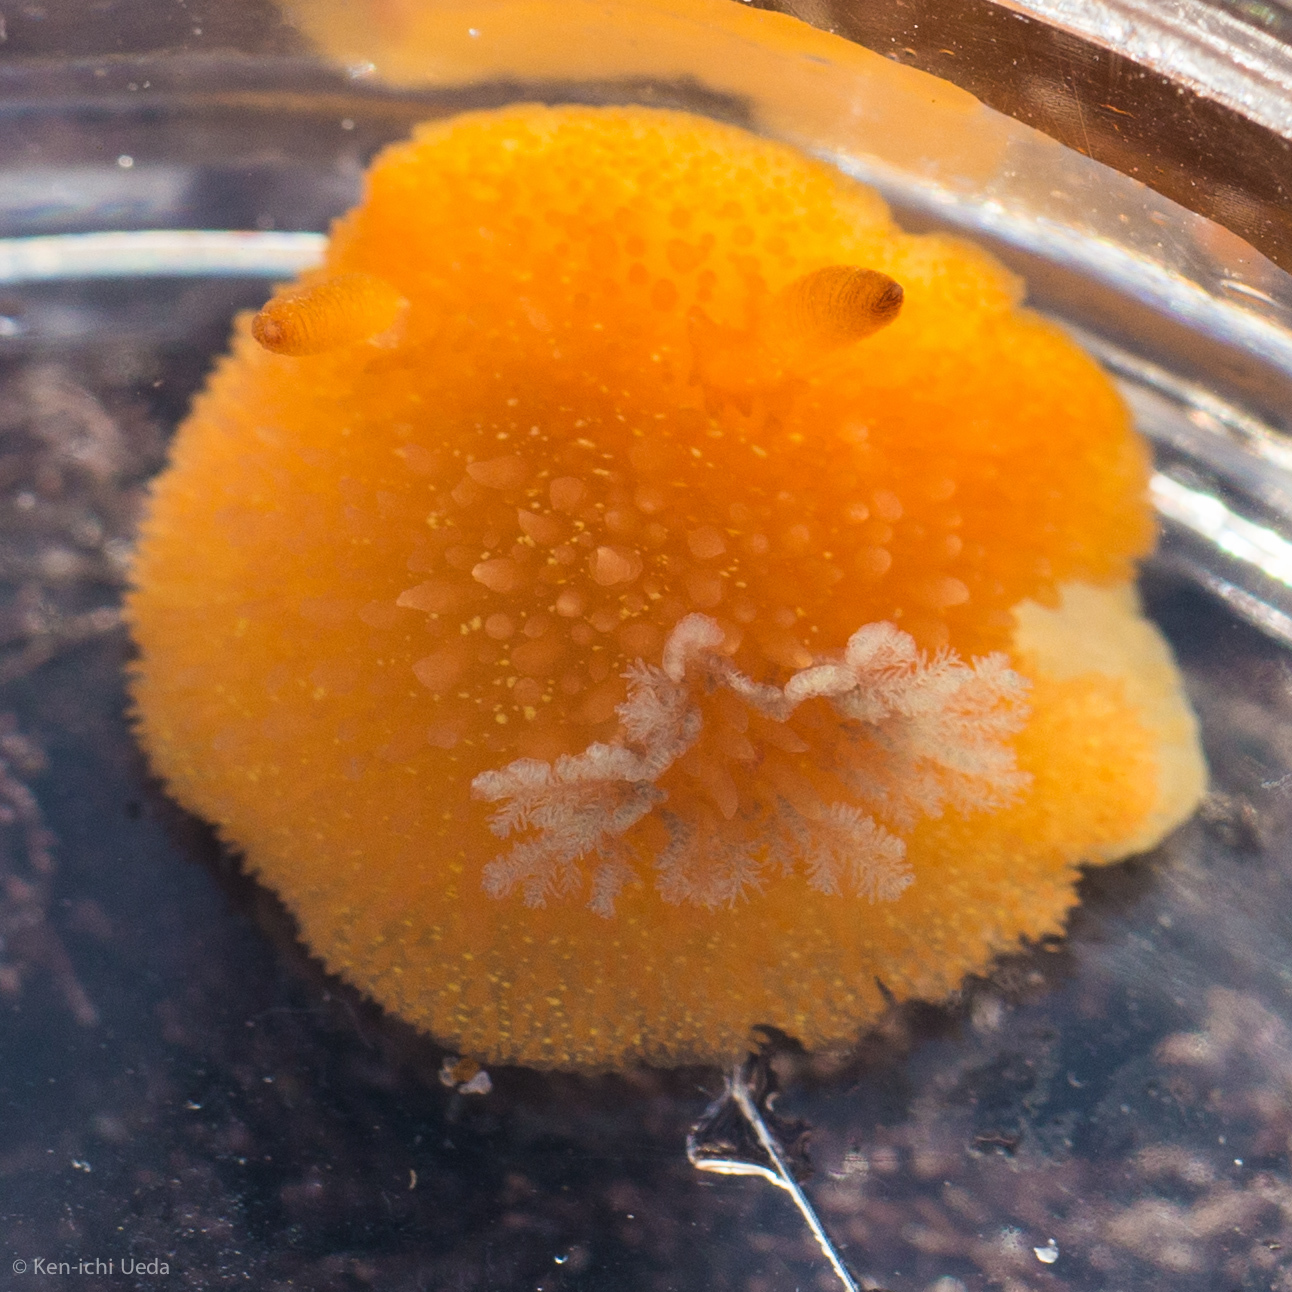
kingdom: Animalia
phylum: Mollusca
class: Gastropoda
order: Nudibranchia
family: Onchidorididae
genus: Acanthodoris
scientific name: Acanthodoris lutea
